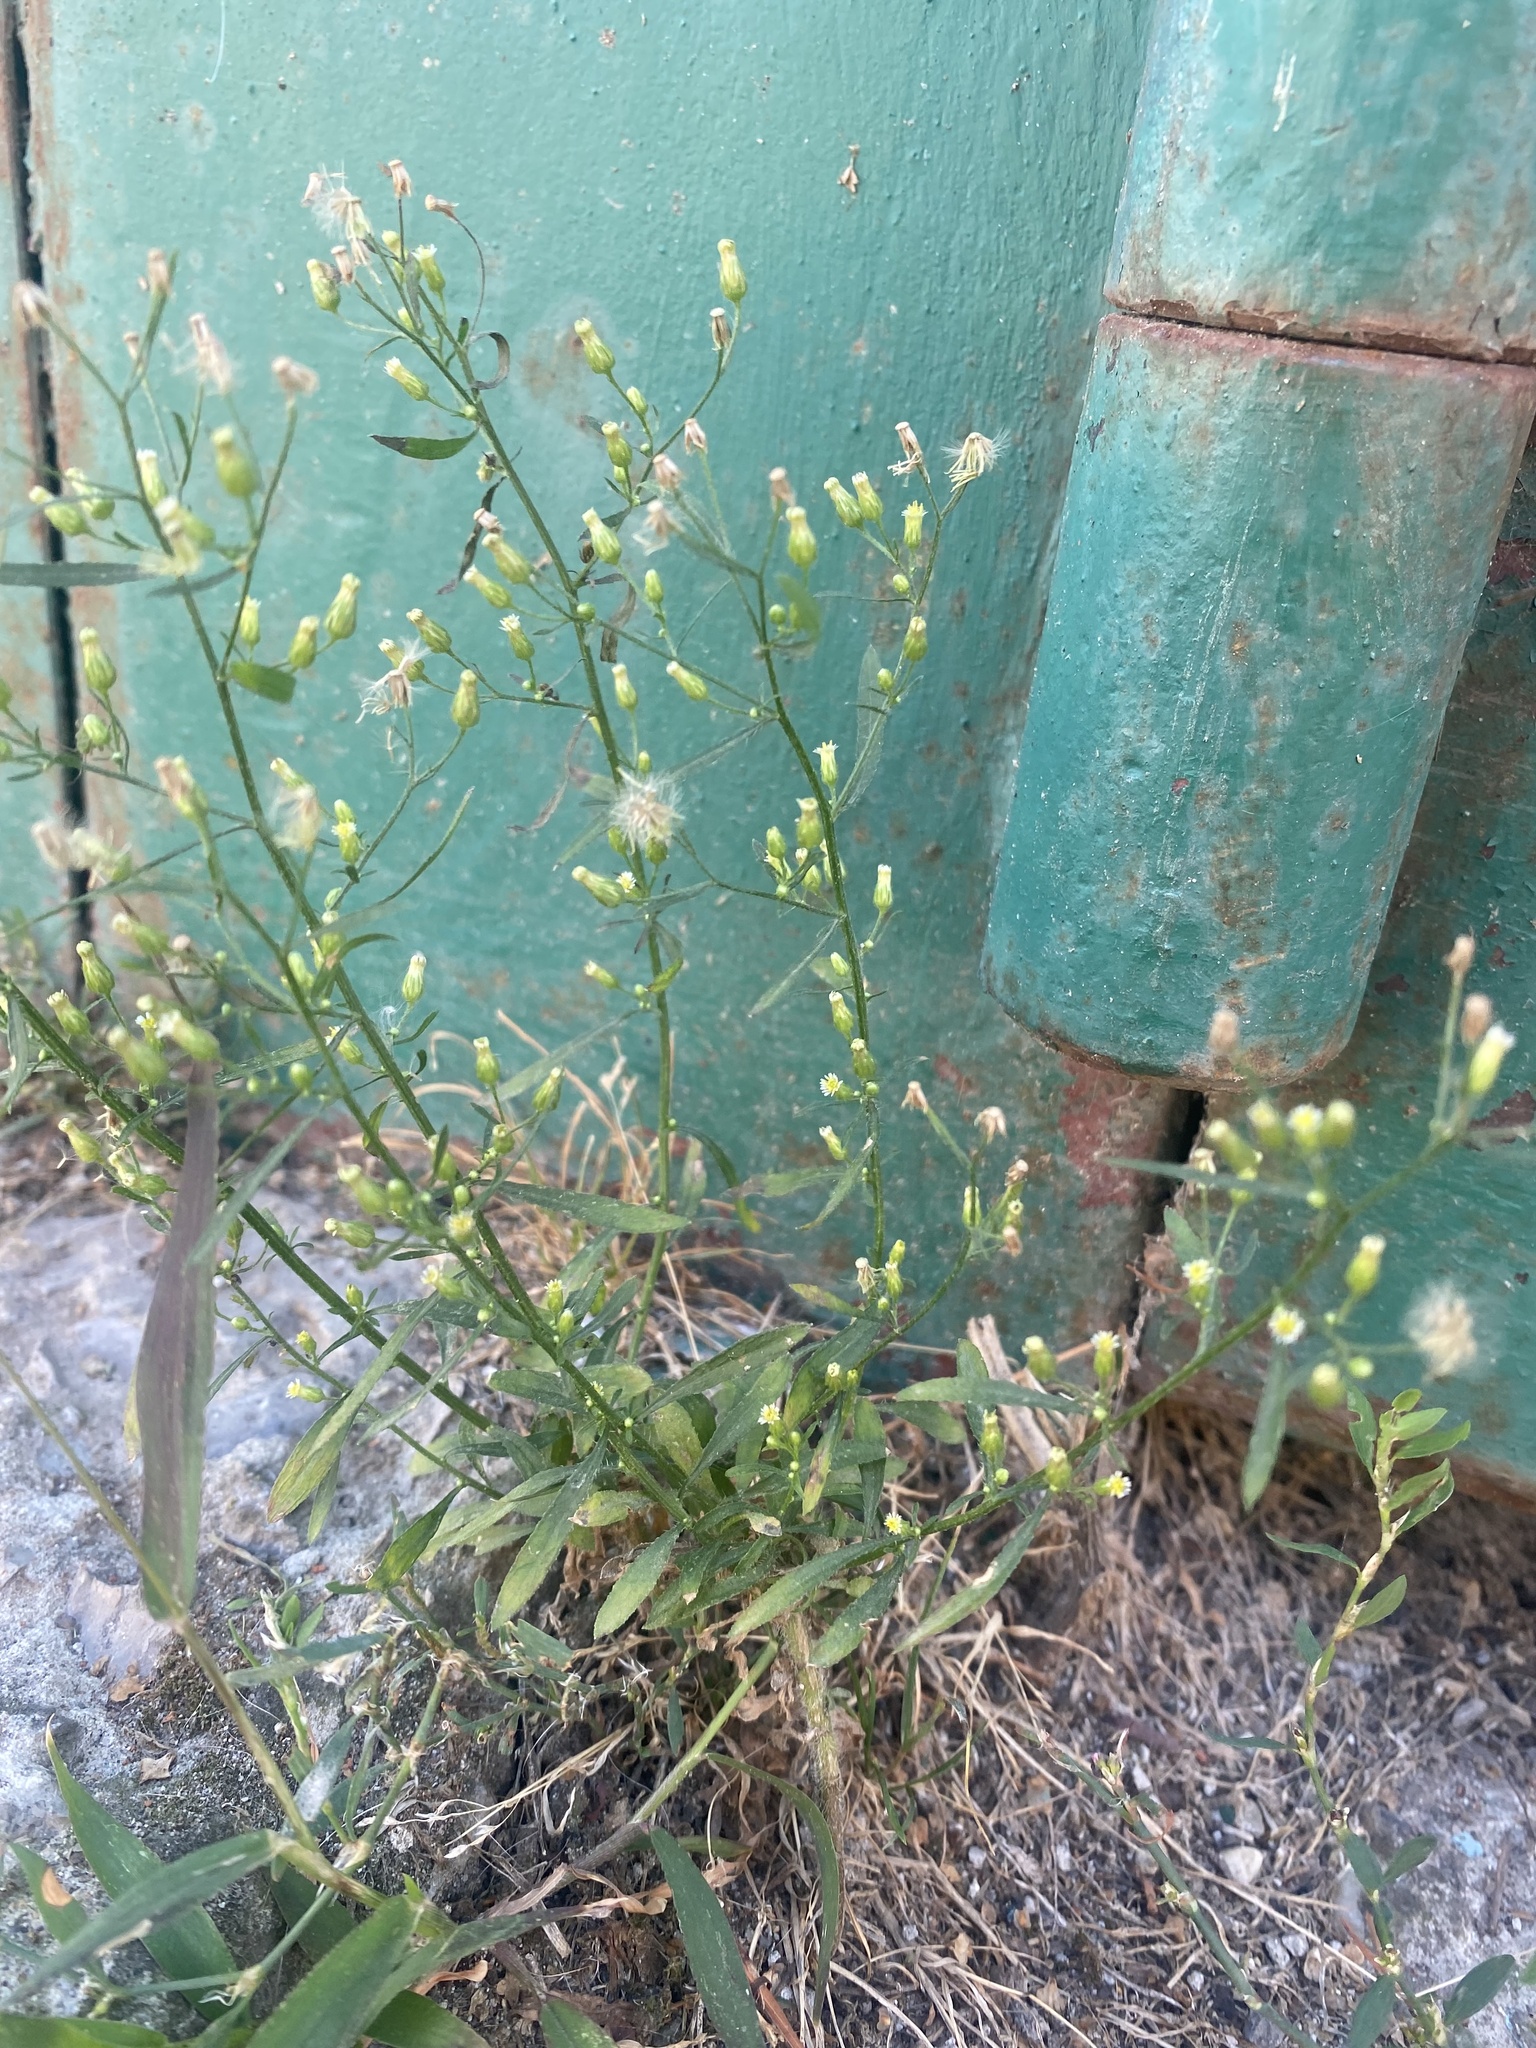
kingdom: Plantae
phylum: Tracheophyta
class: Magnoliopsida
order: Asterales
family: Asteraceae
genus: Erigeron
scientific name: Erigeron canadensis
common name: Canadian fleabane
